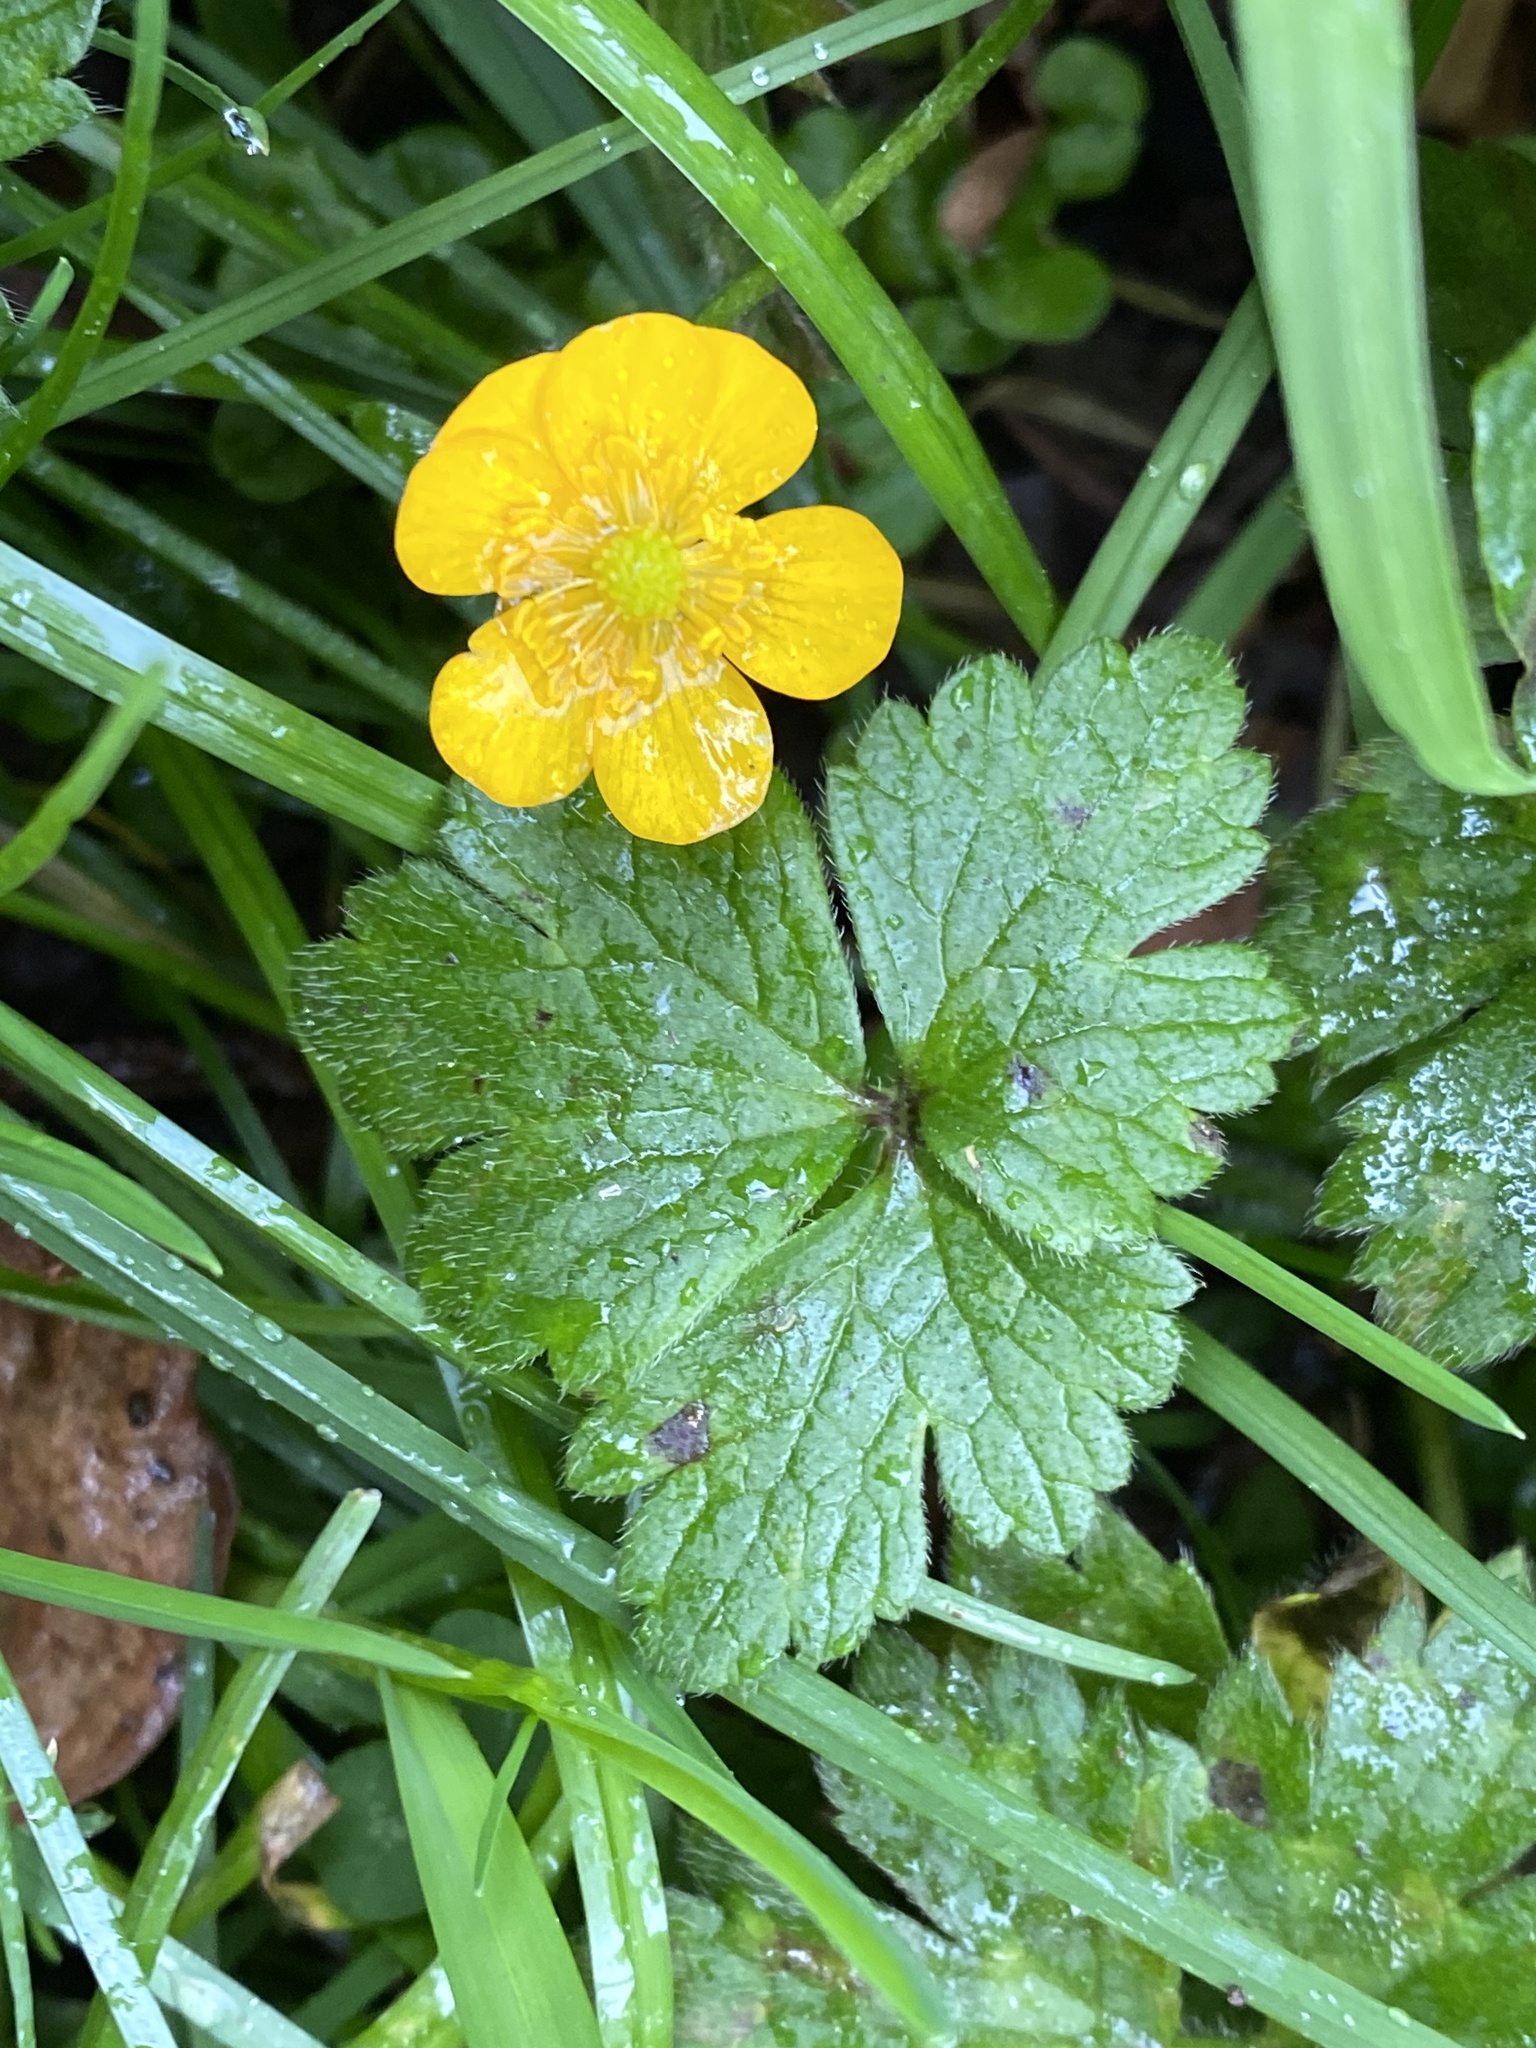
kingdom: Plantae
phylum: Tracheophyta
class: Magnoliopsida
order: Ranunculales
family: Ranunculaceae
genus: Ranunculus
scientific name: Ranunculus repens
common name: Creeping buttercup
